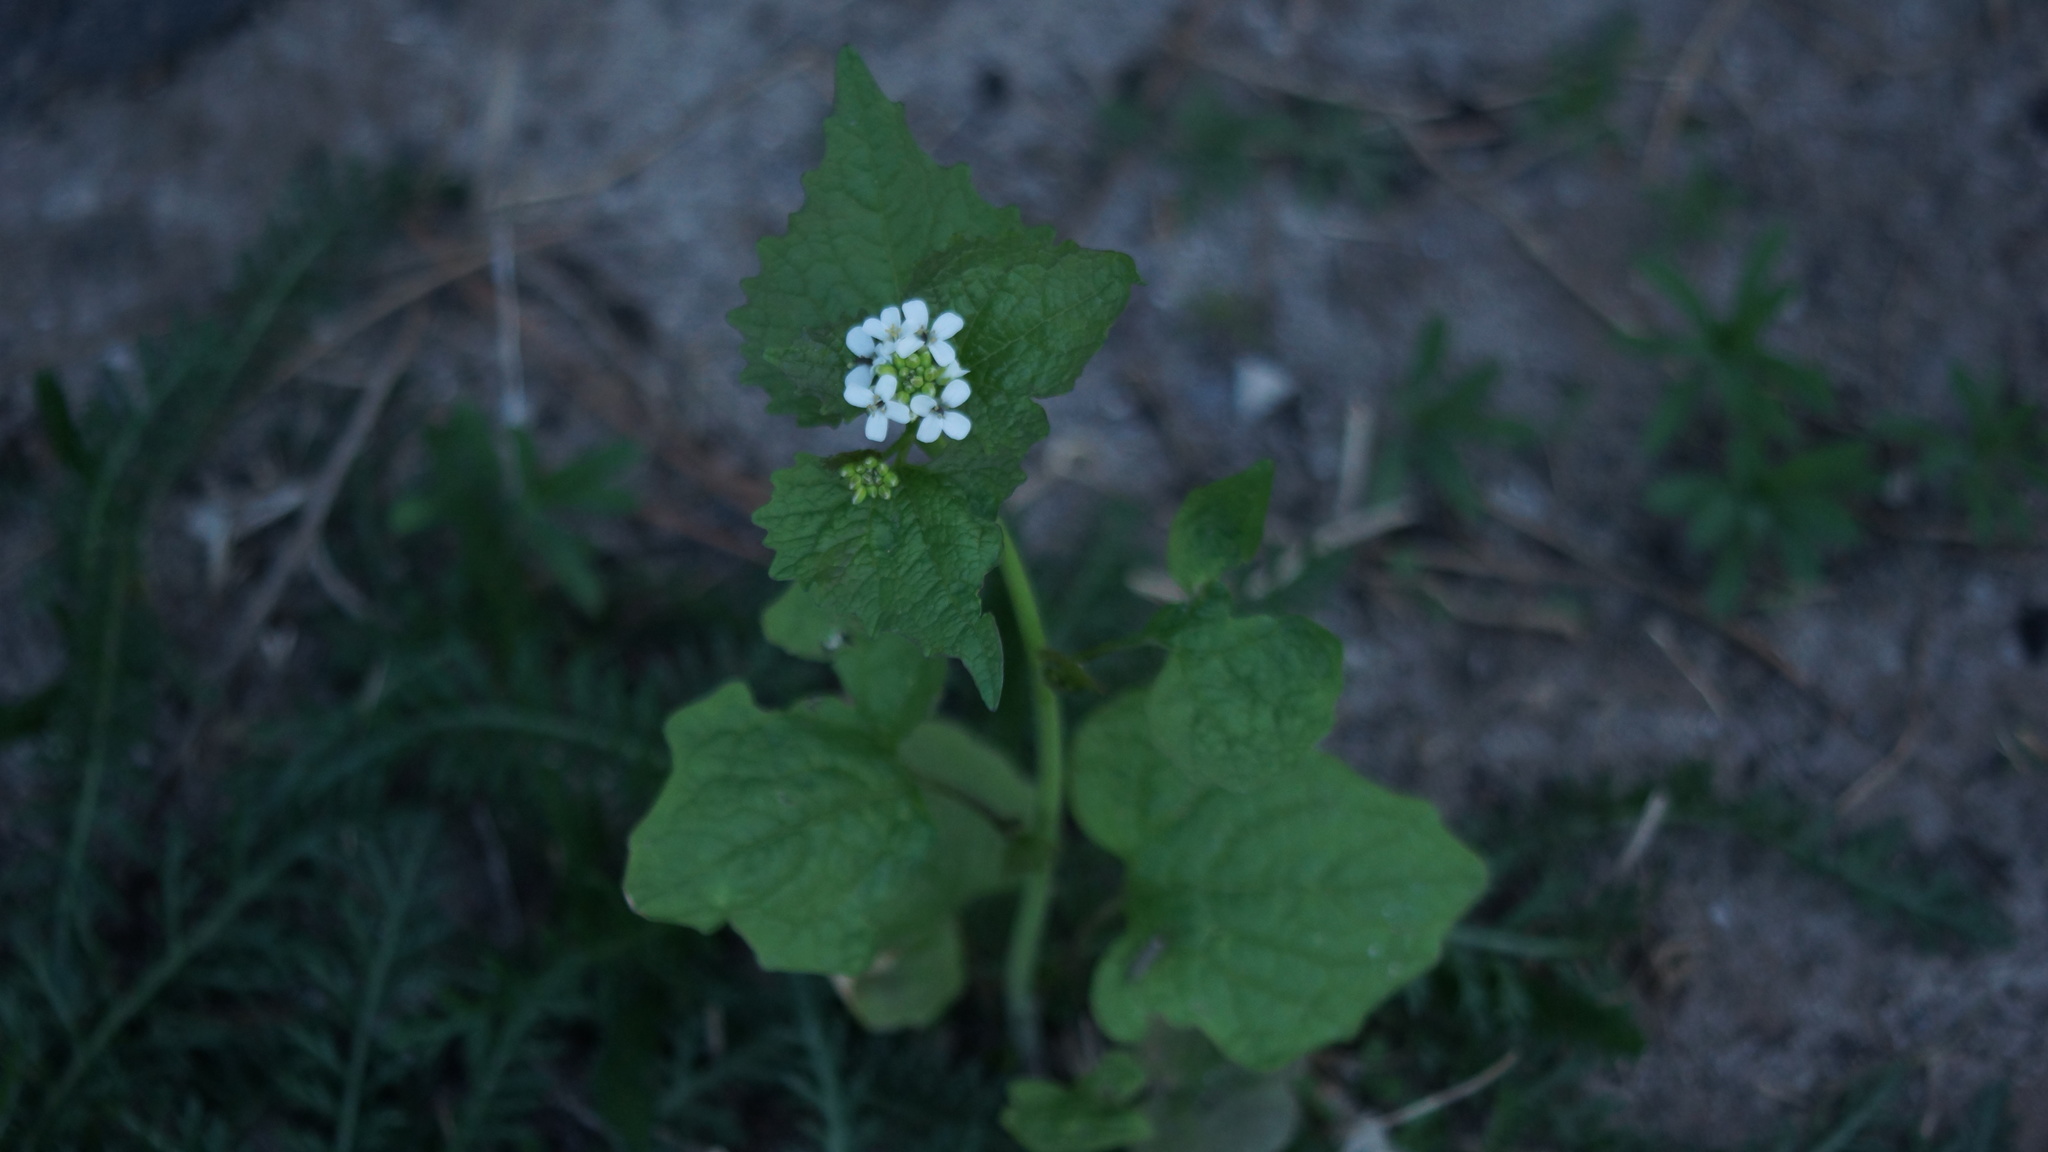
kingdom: Plantae
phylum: Tracheophyta
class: Magnoliopsida
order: Brassicales
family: Brassicaceae
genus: Alliaria
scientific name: Alliaria petiolata
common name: Garlic mustard
